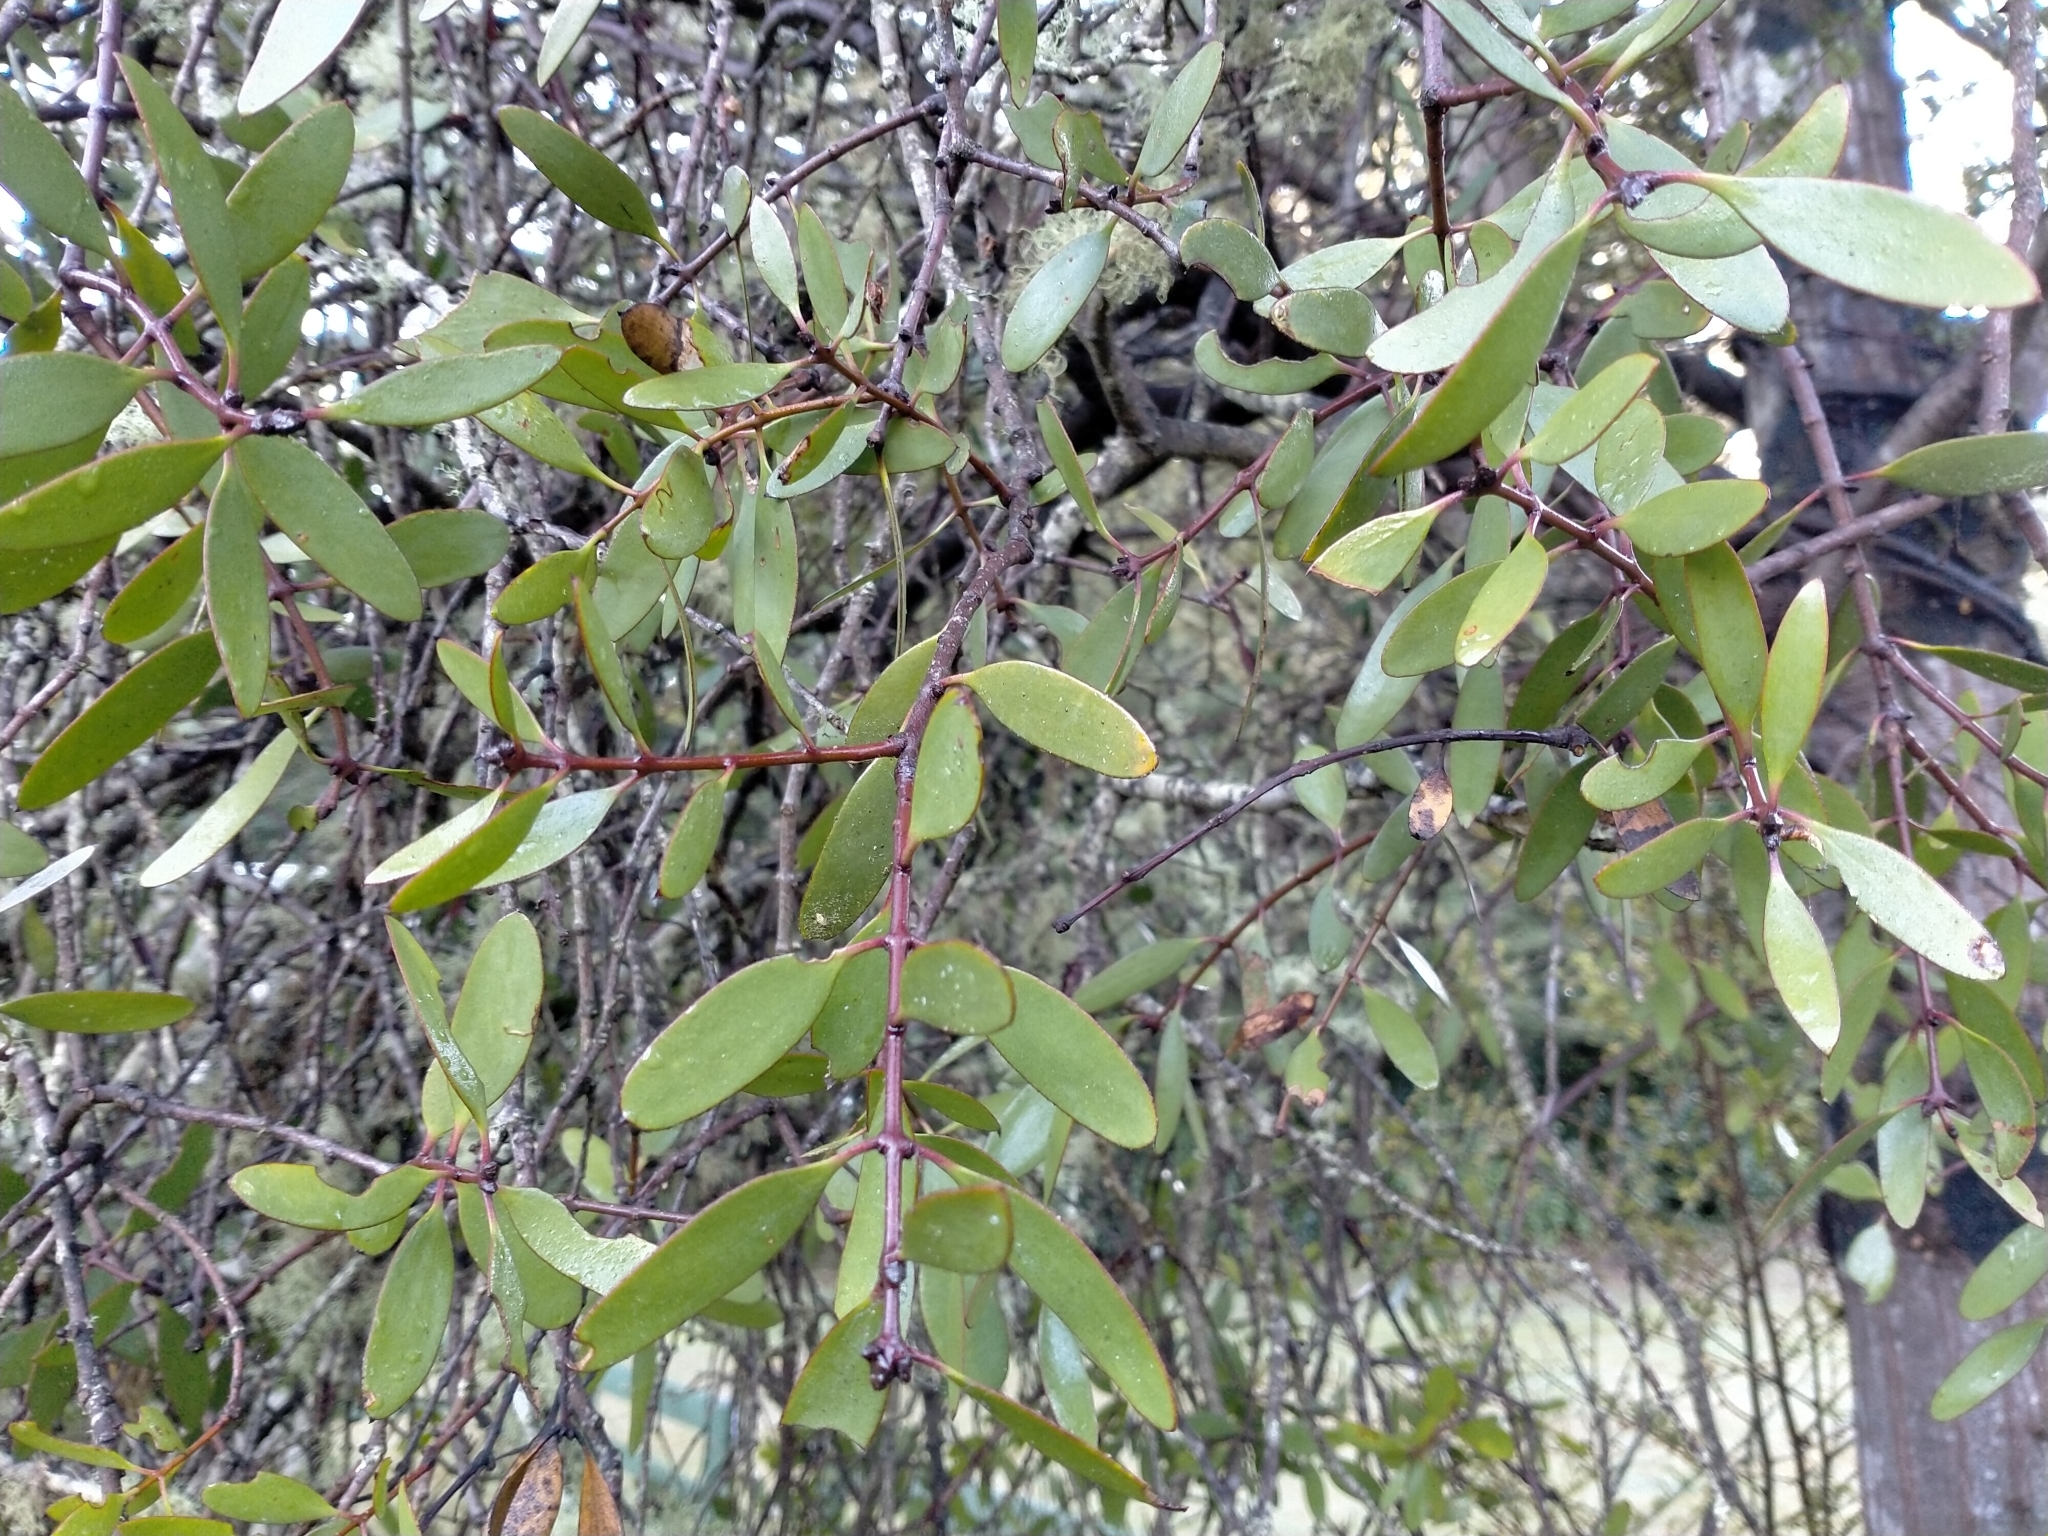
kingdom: Plantae
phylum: Tracheophyta
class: Magnoliopsida
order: Santalales
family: Loranthaceae
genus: Alepis
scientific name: Alepis flavida
